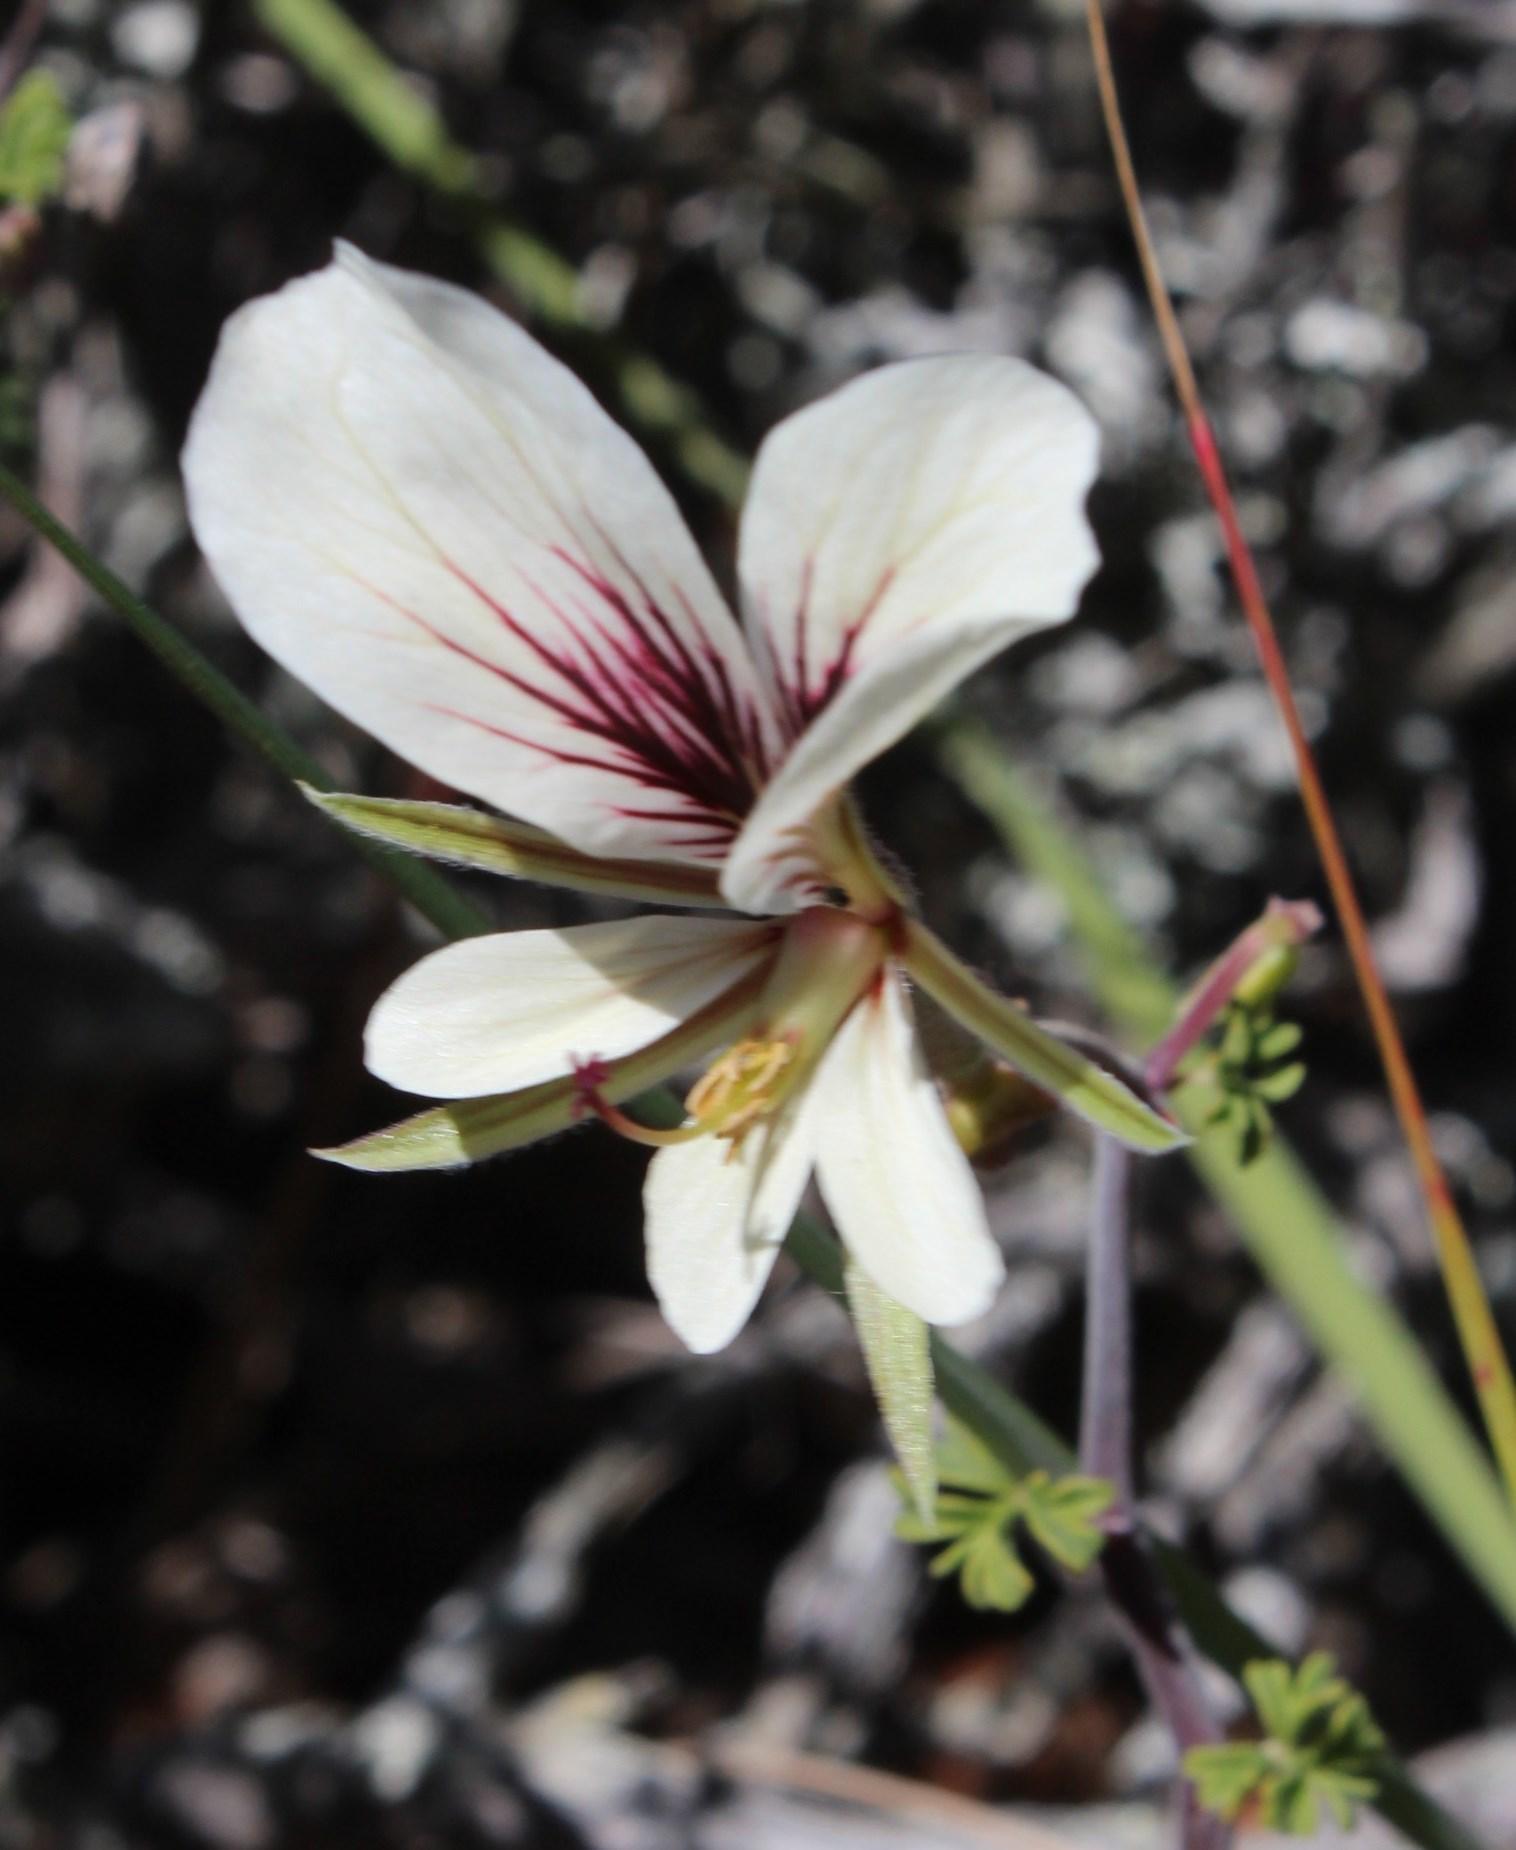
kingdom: Plantae
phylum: Tracheophyta
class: Magnoliopsida
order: Geraniales
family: Geraniaceae
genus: Pelargonium
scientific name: Pelargonium praemorsum
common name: Quinate-leaf pelargonium
